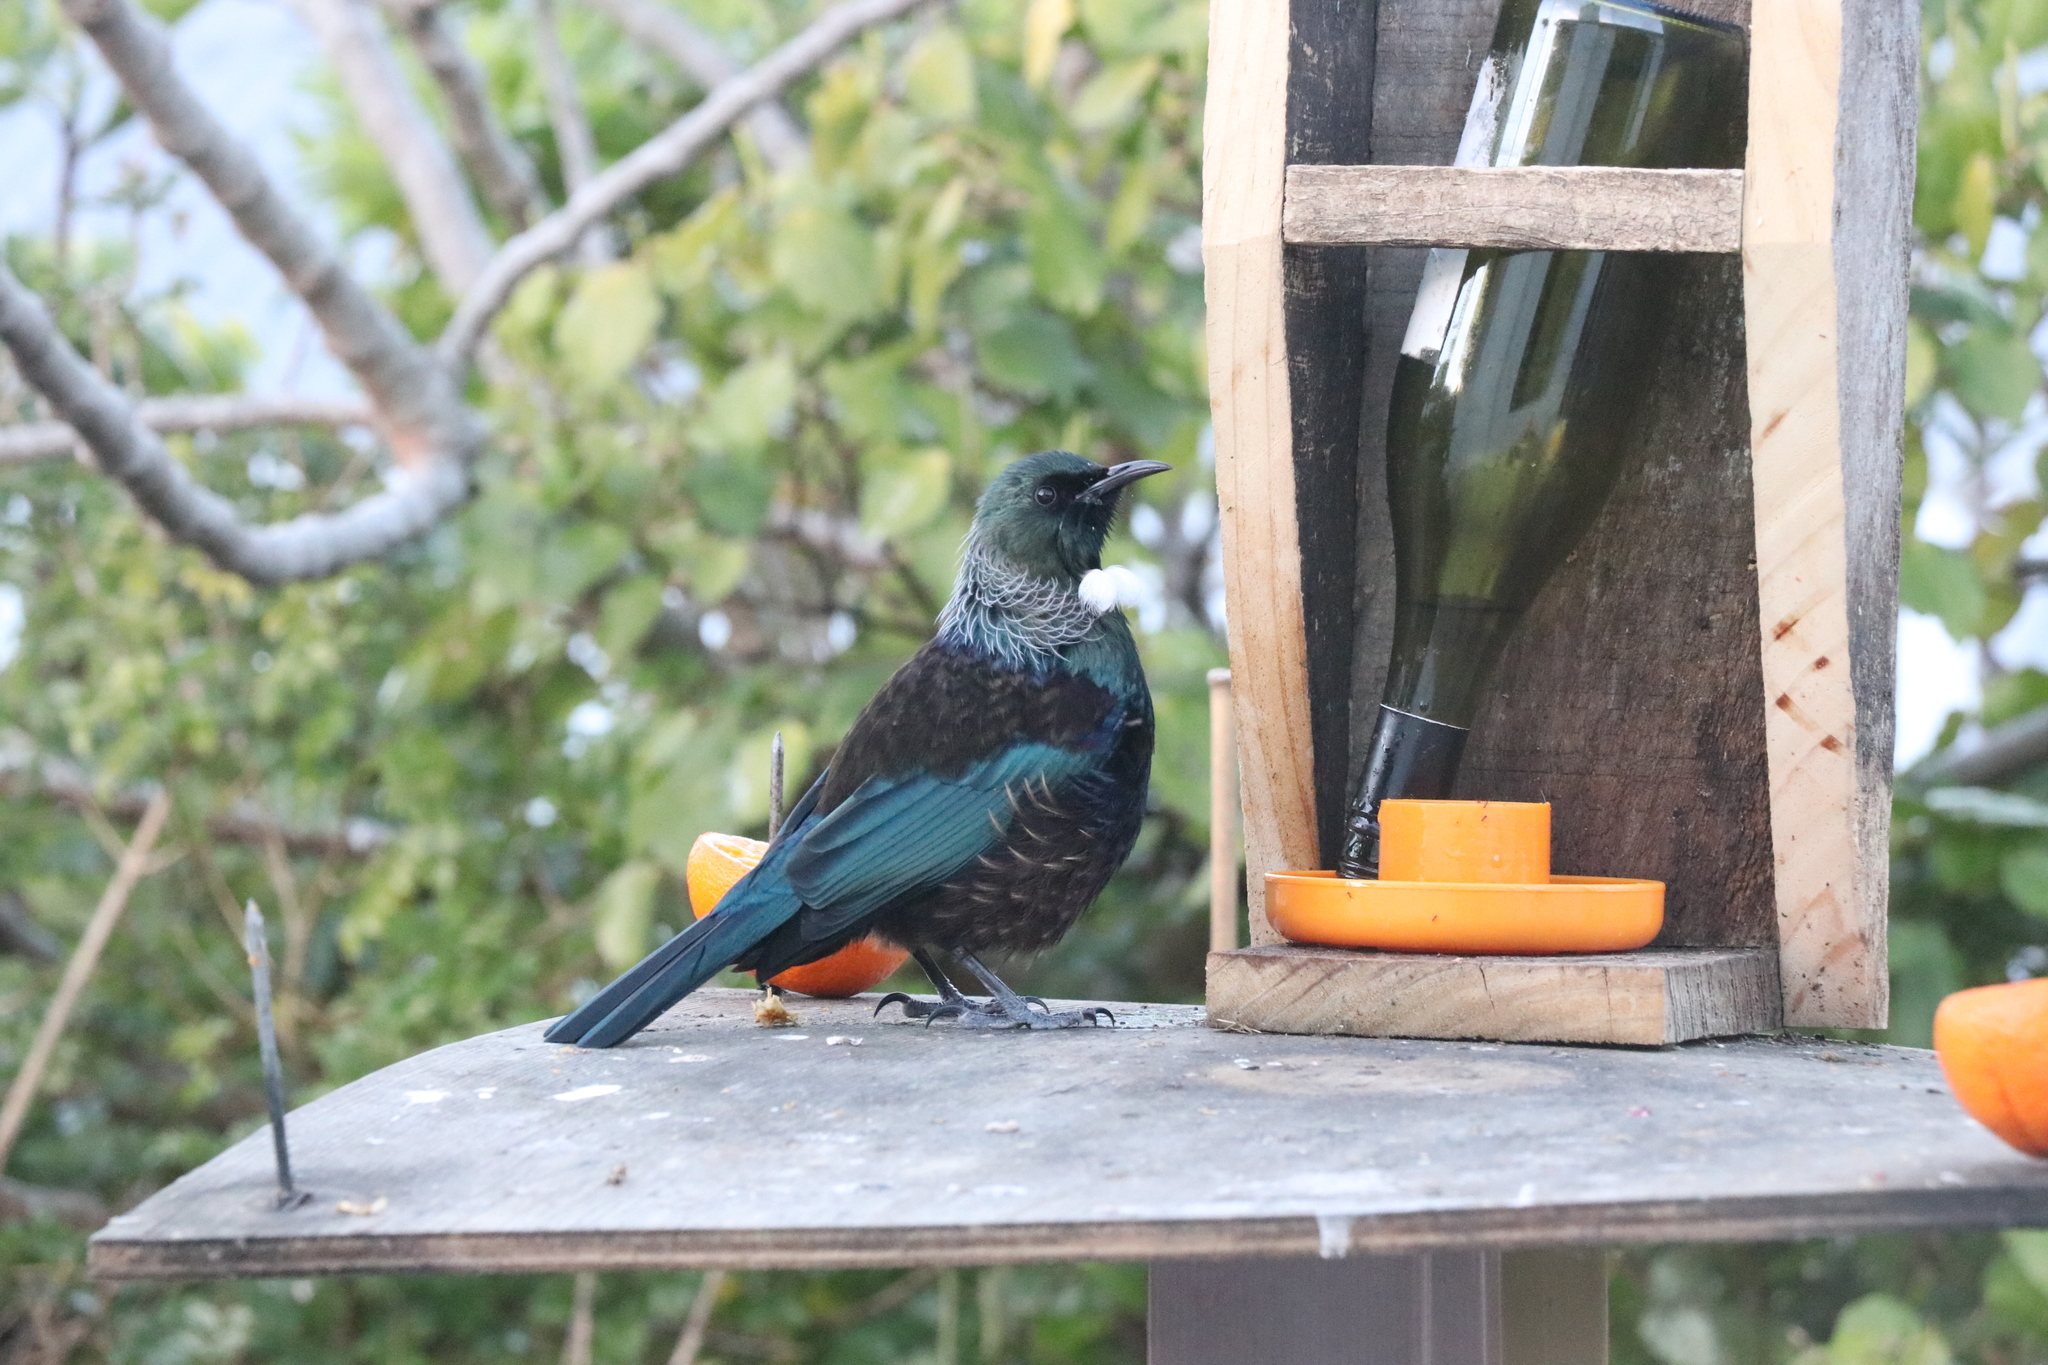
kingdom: Animalia
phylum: Chordata
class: Aves
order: Passeriformes
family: Meliphagidae
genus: Prosthemadera
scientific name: Prosthemadera novaeseelandiae
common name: Tui
